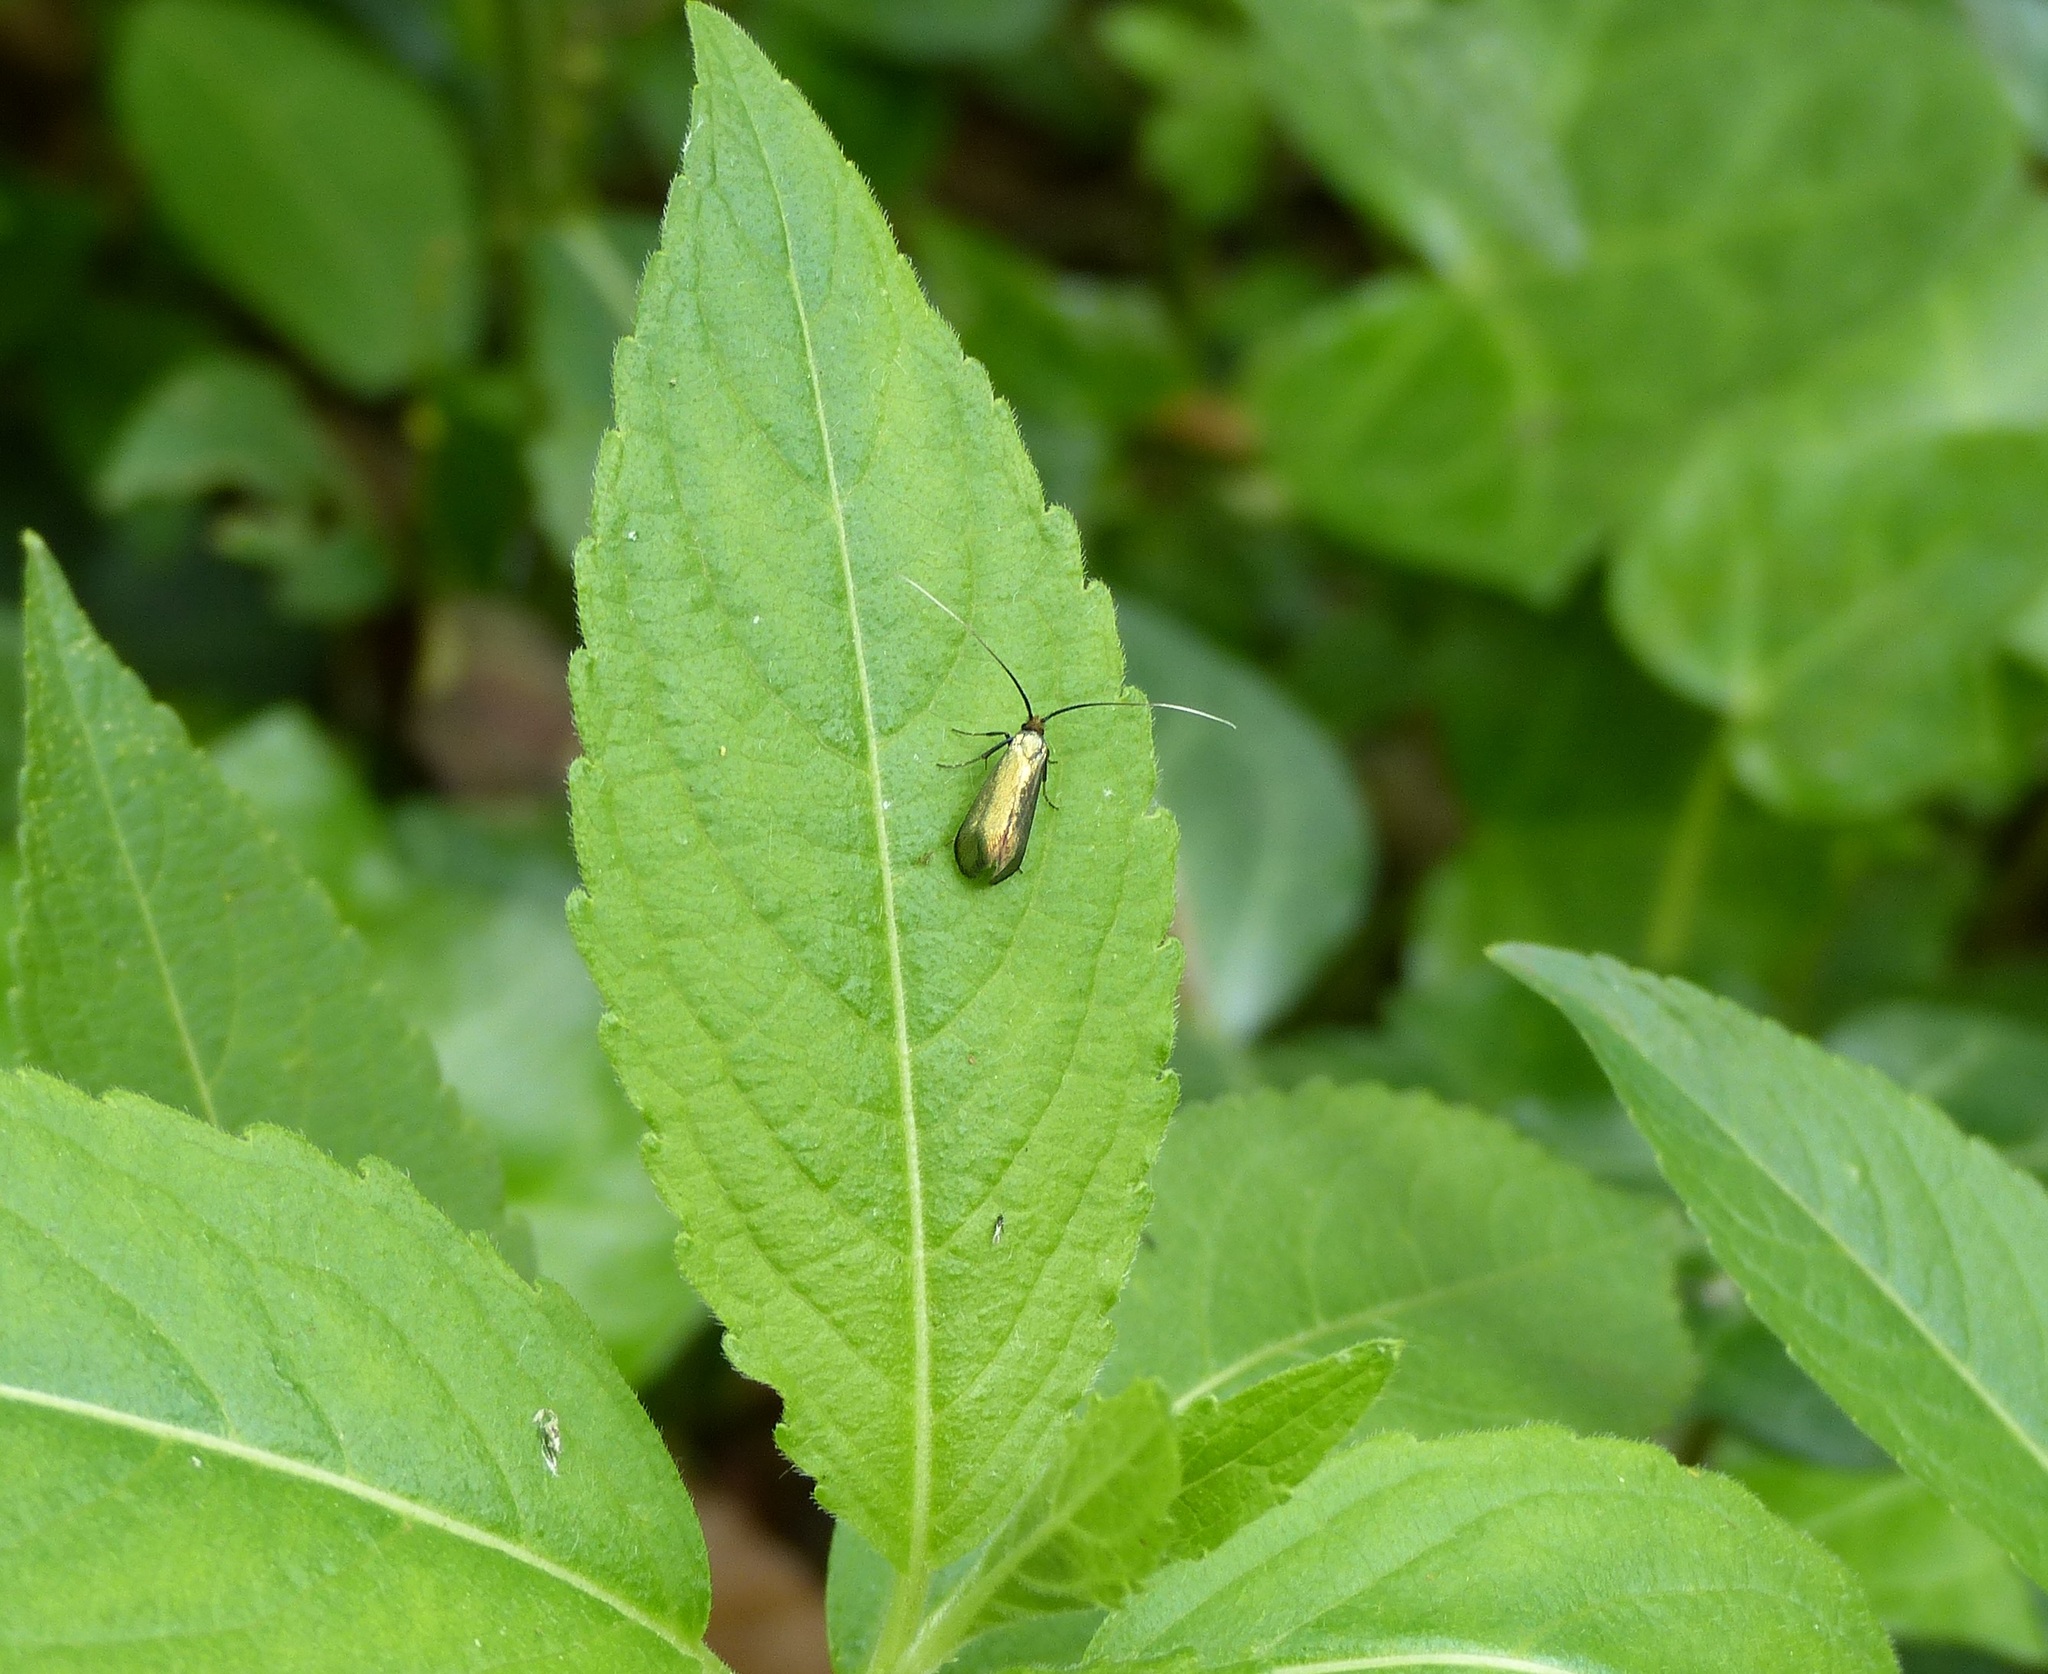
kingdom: Animalia
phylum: Arthropoda
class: Insecta
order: Lepidoptera
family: Adelidae
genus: Adela
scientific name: Adela viridella
